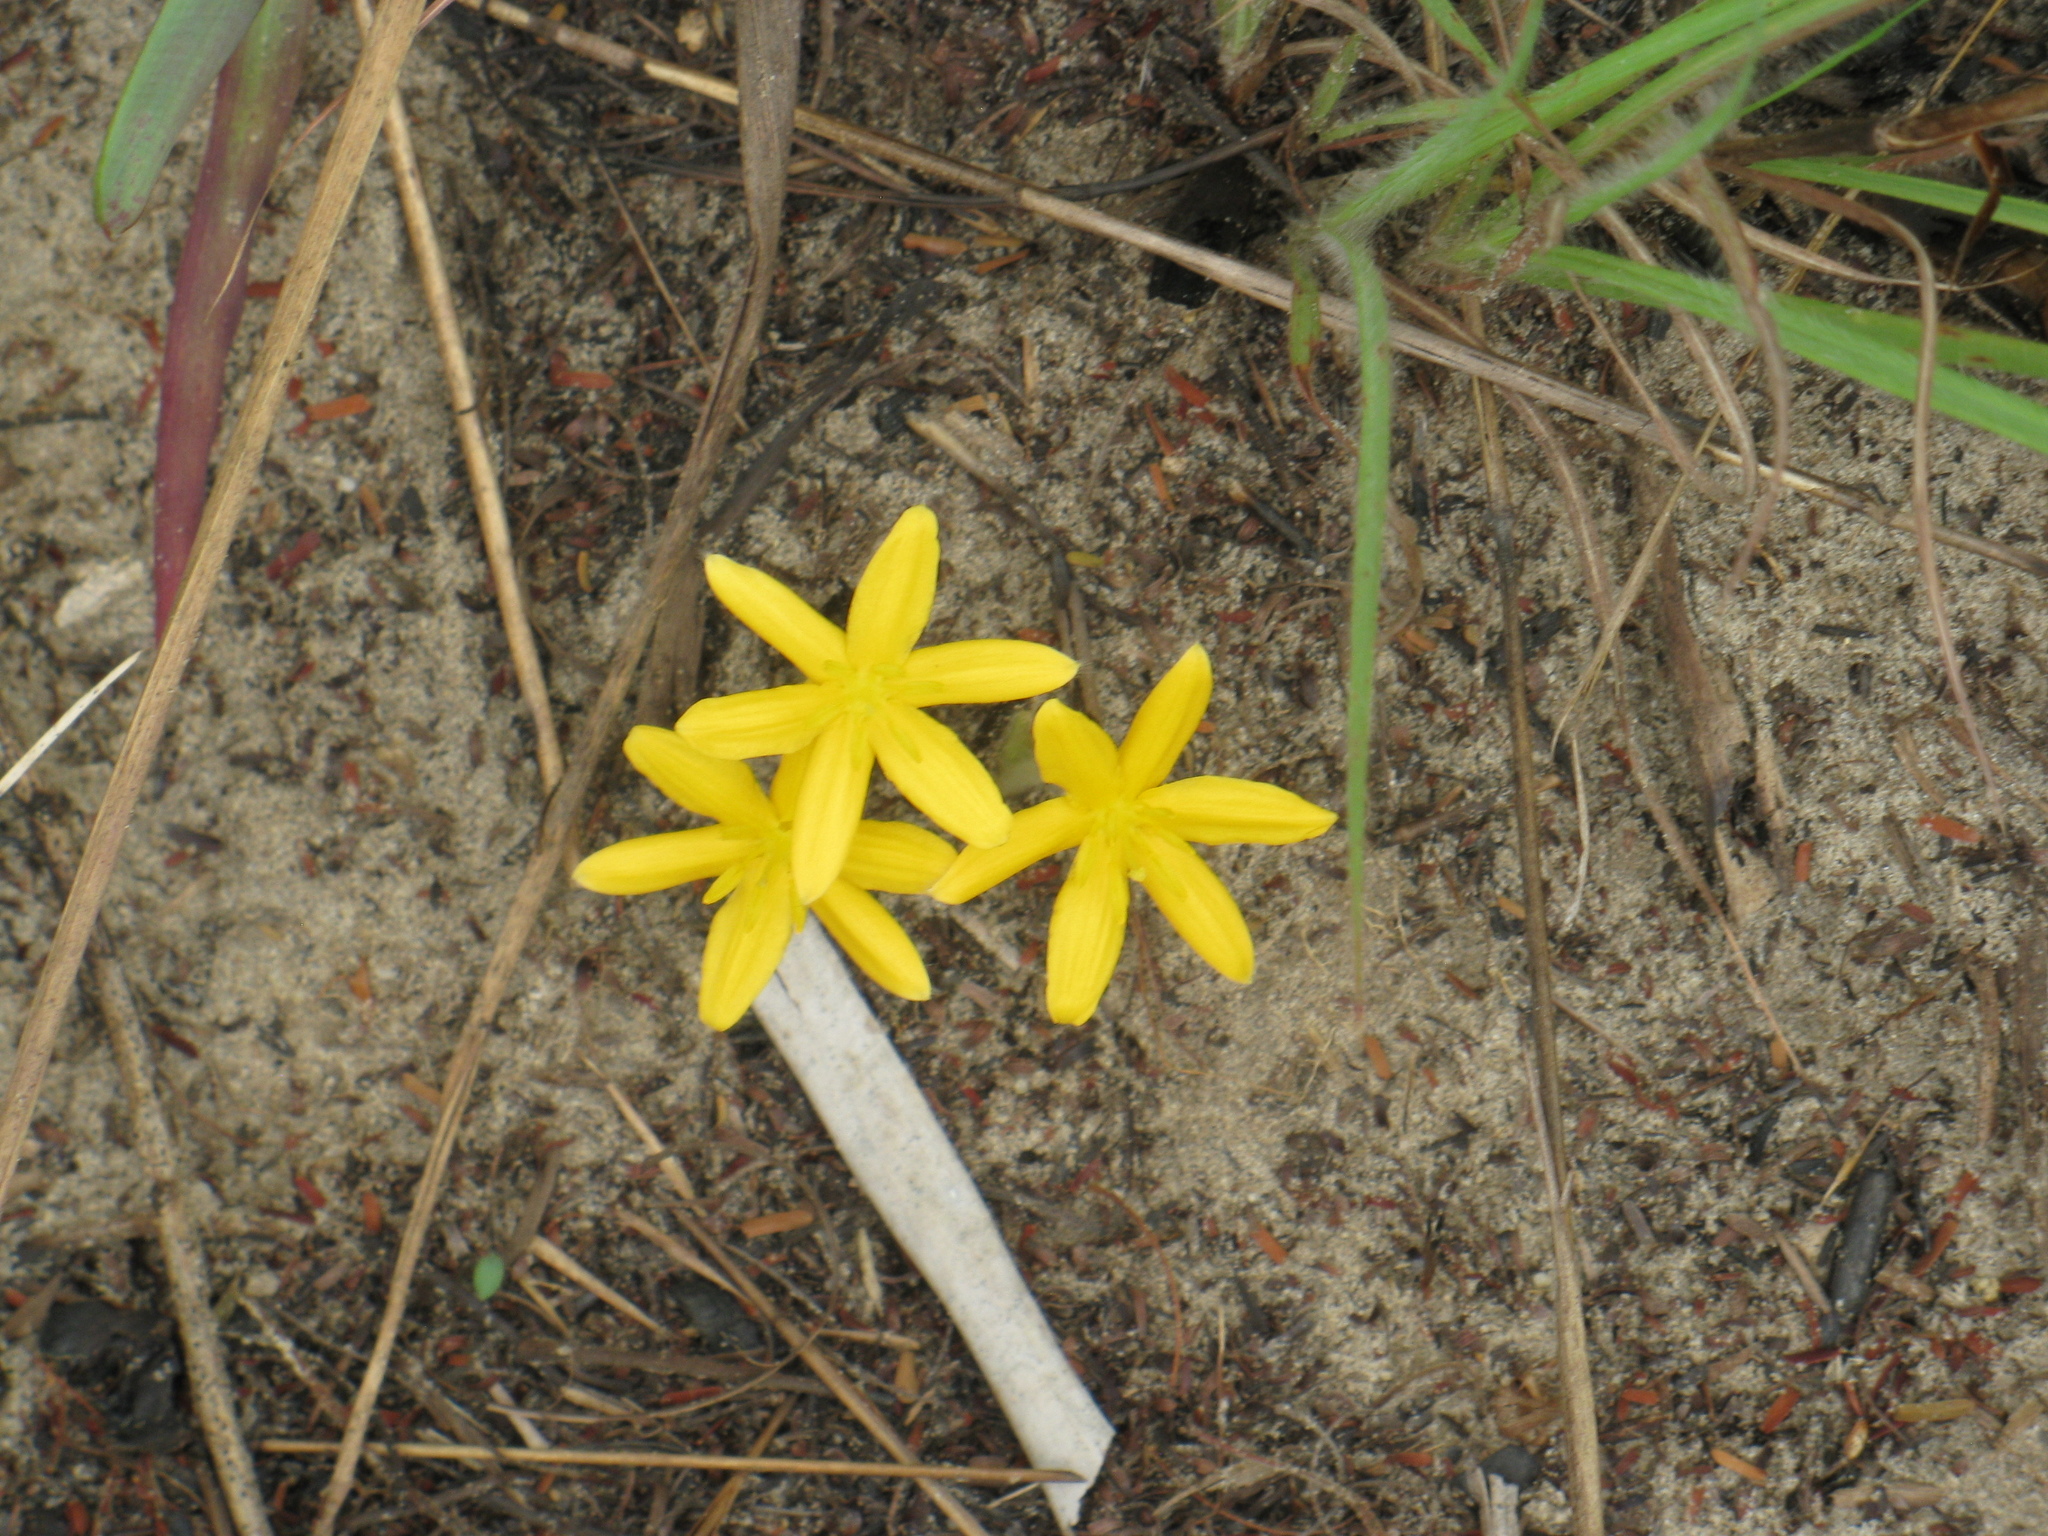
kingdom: Plantae
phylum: Tracheophyta
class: Liliopsida
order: Asparagales
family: Hypoxidaceae
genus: Curculigo
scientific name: Curculigo pilosa
